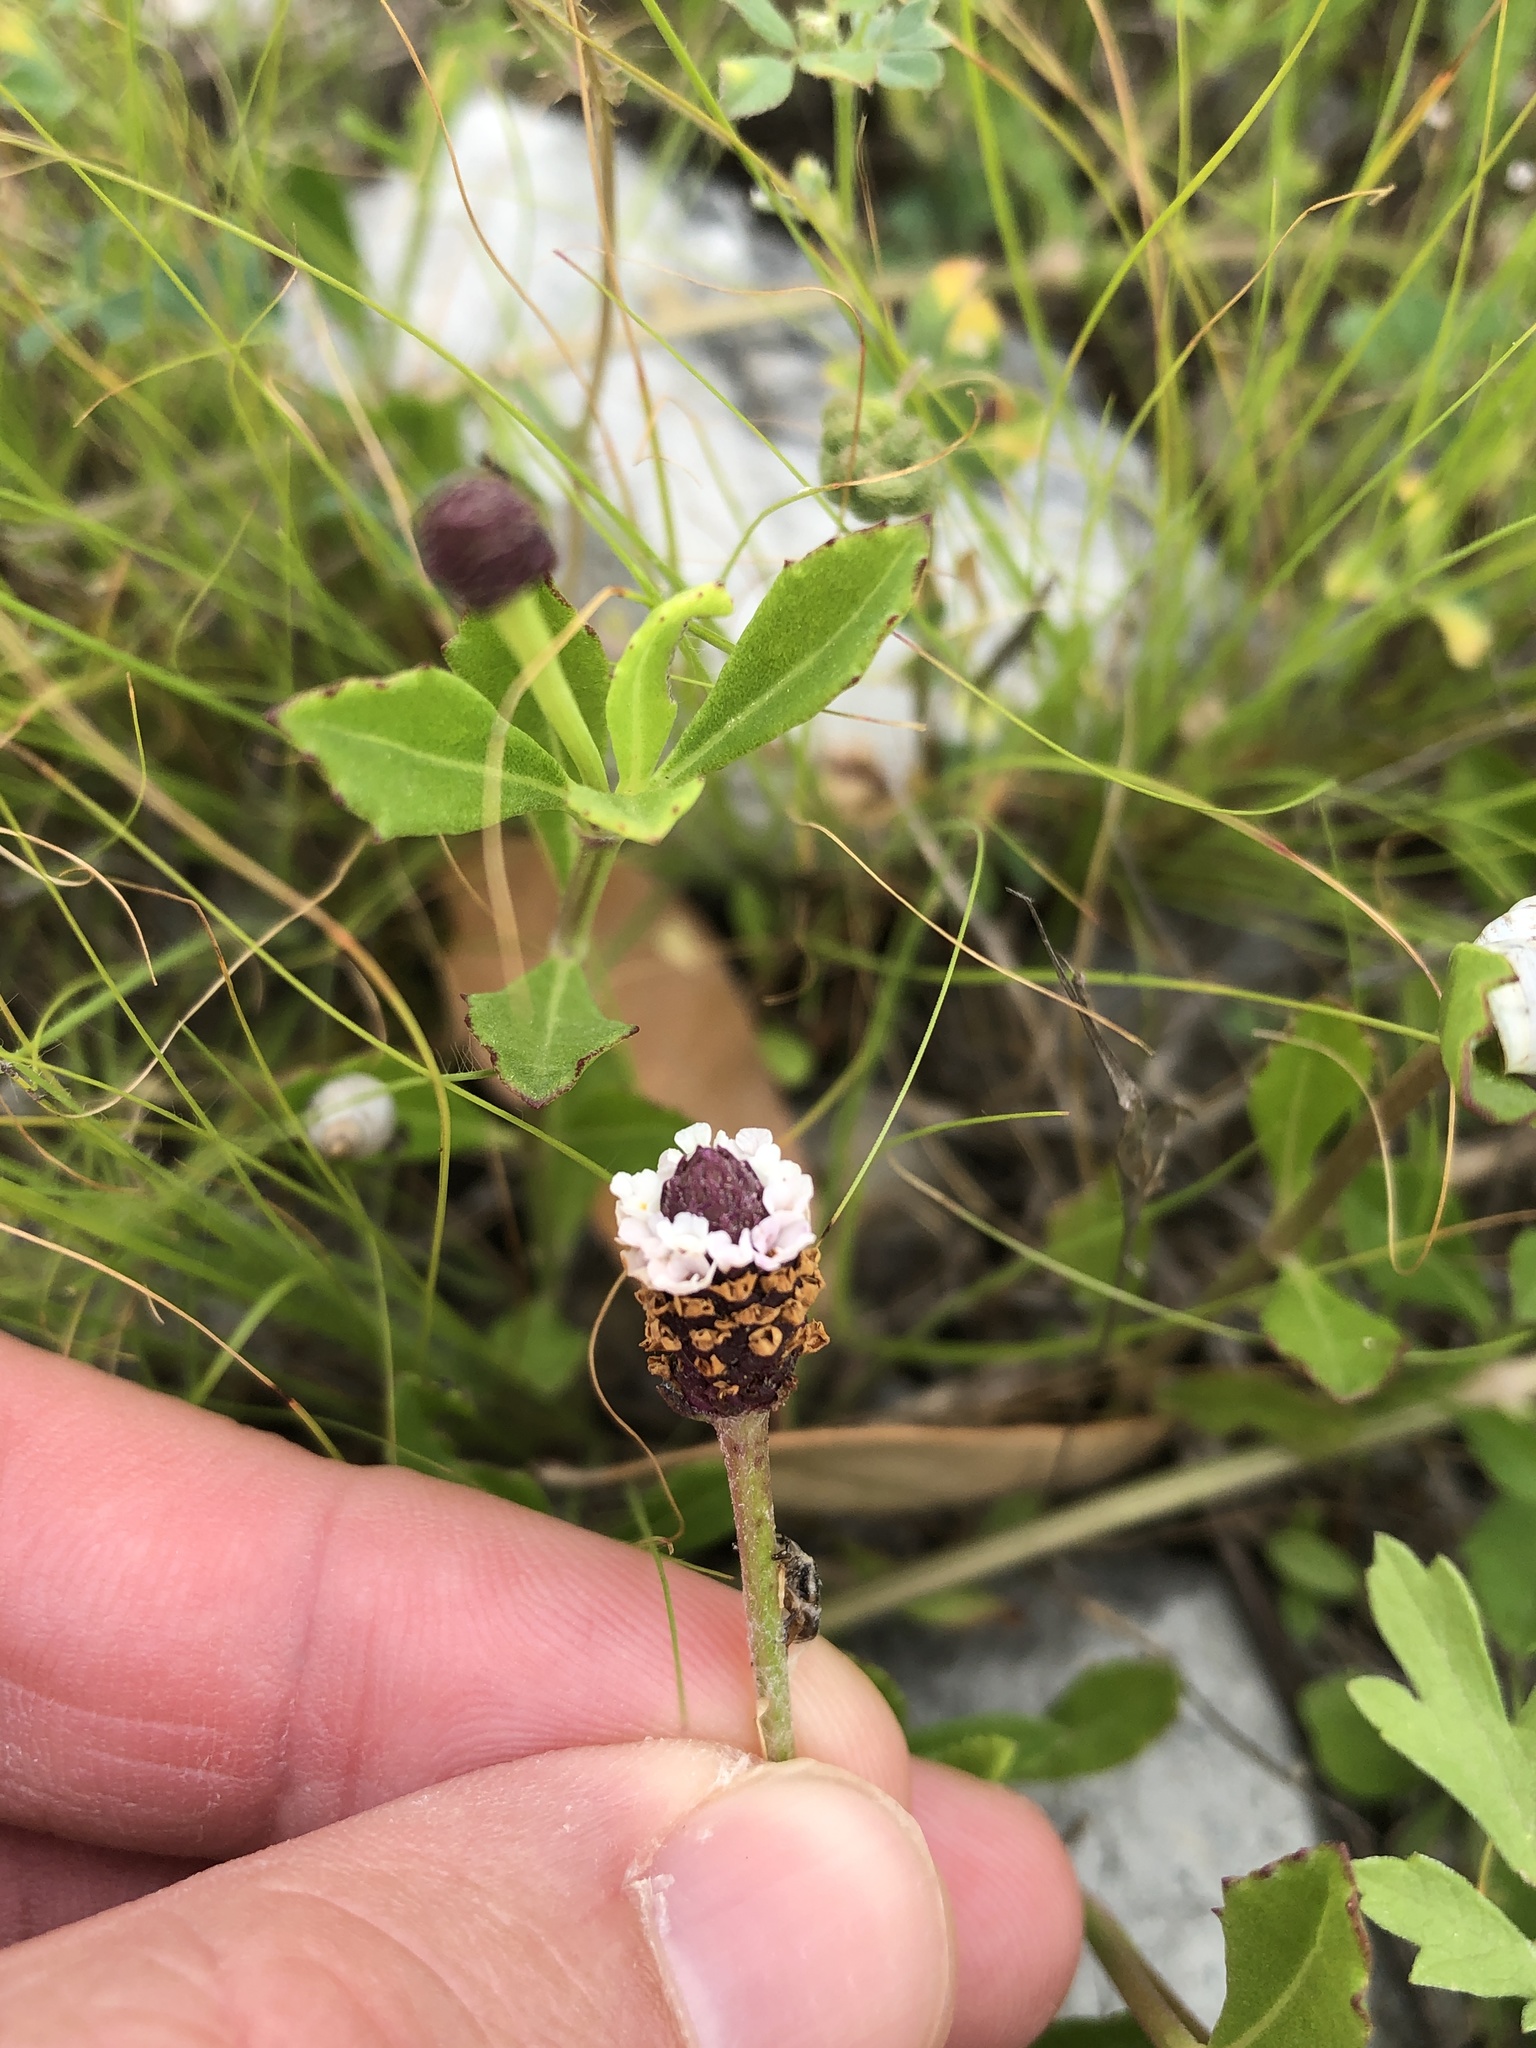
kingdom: Plantae
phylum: Tracheophyta
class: Magnoliopsida
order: Lamiales
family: Verbenaceae
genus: Phyla
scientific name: Phyla nodiflora
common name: Frogfruit
